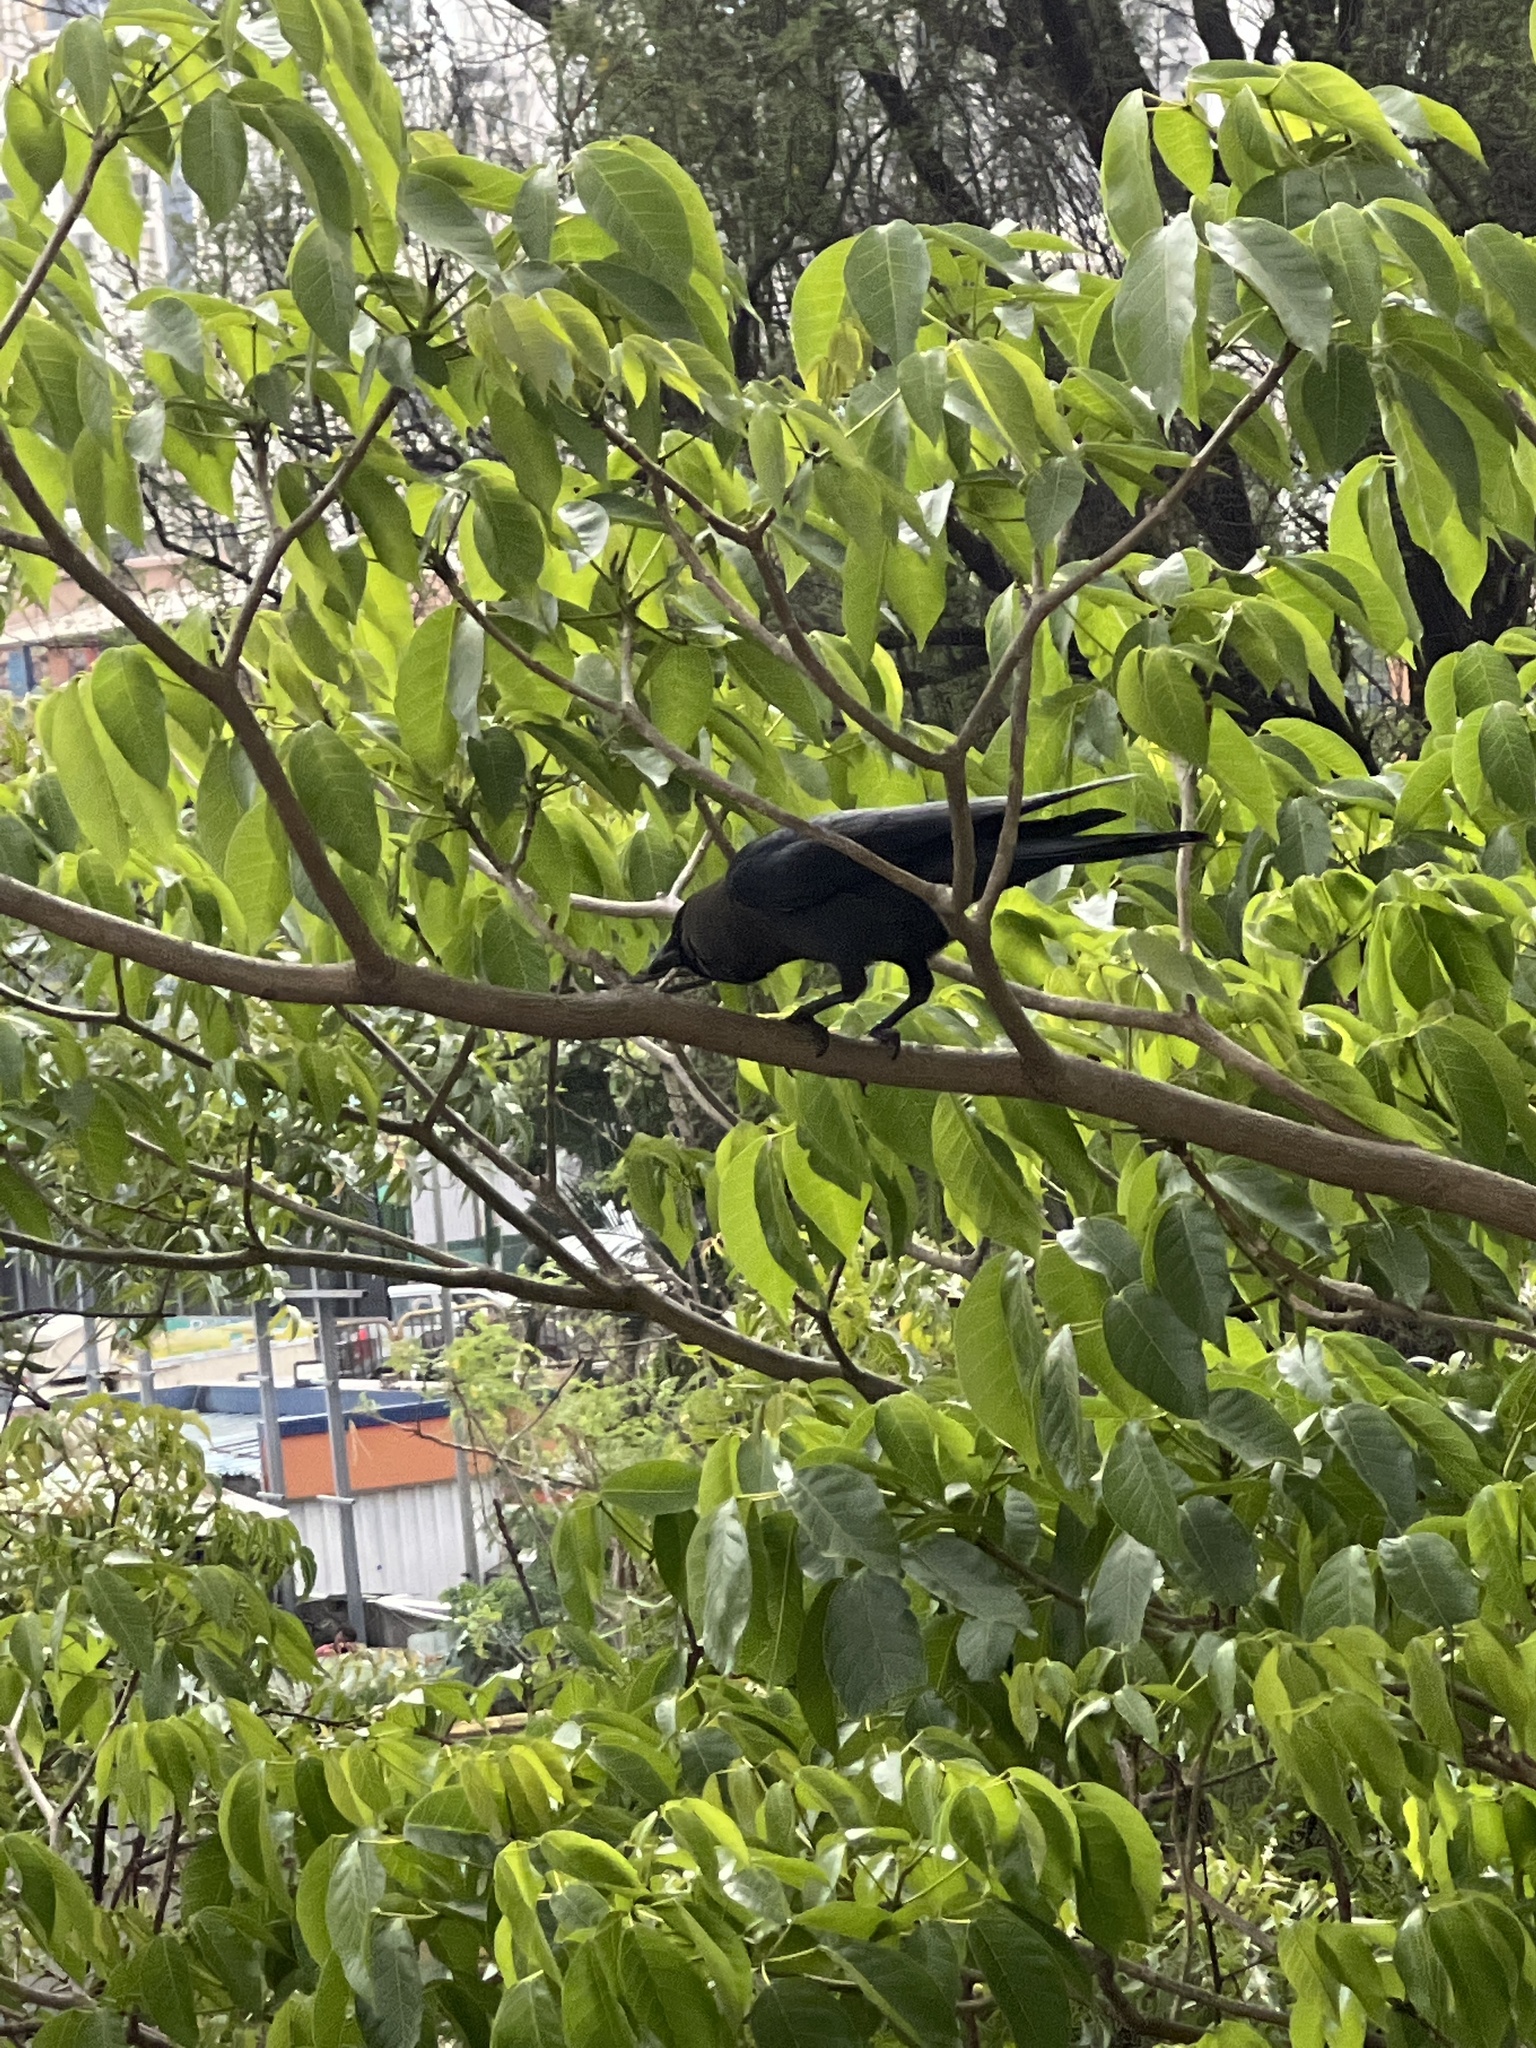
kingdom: Animalia
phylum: Chordata
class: Aves
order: Passeriformes
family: Corvidae
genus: Corvus
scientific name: Corvus splendens
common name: House crow
